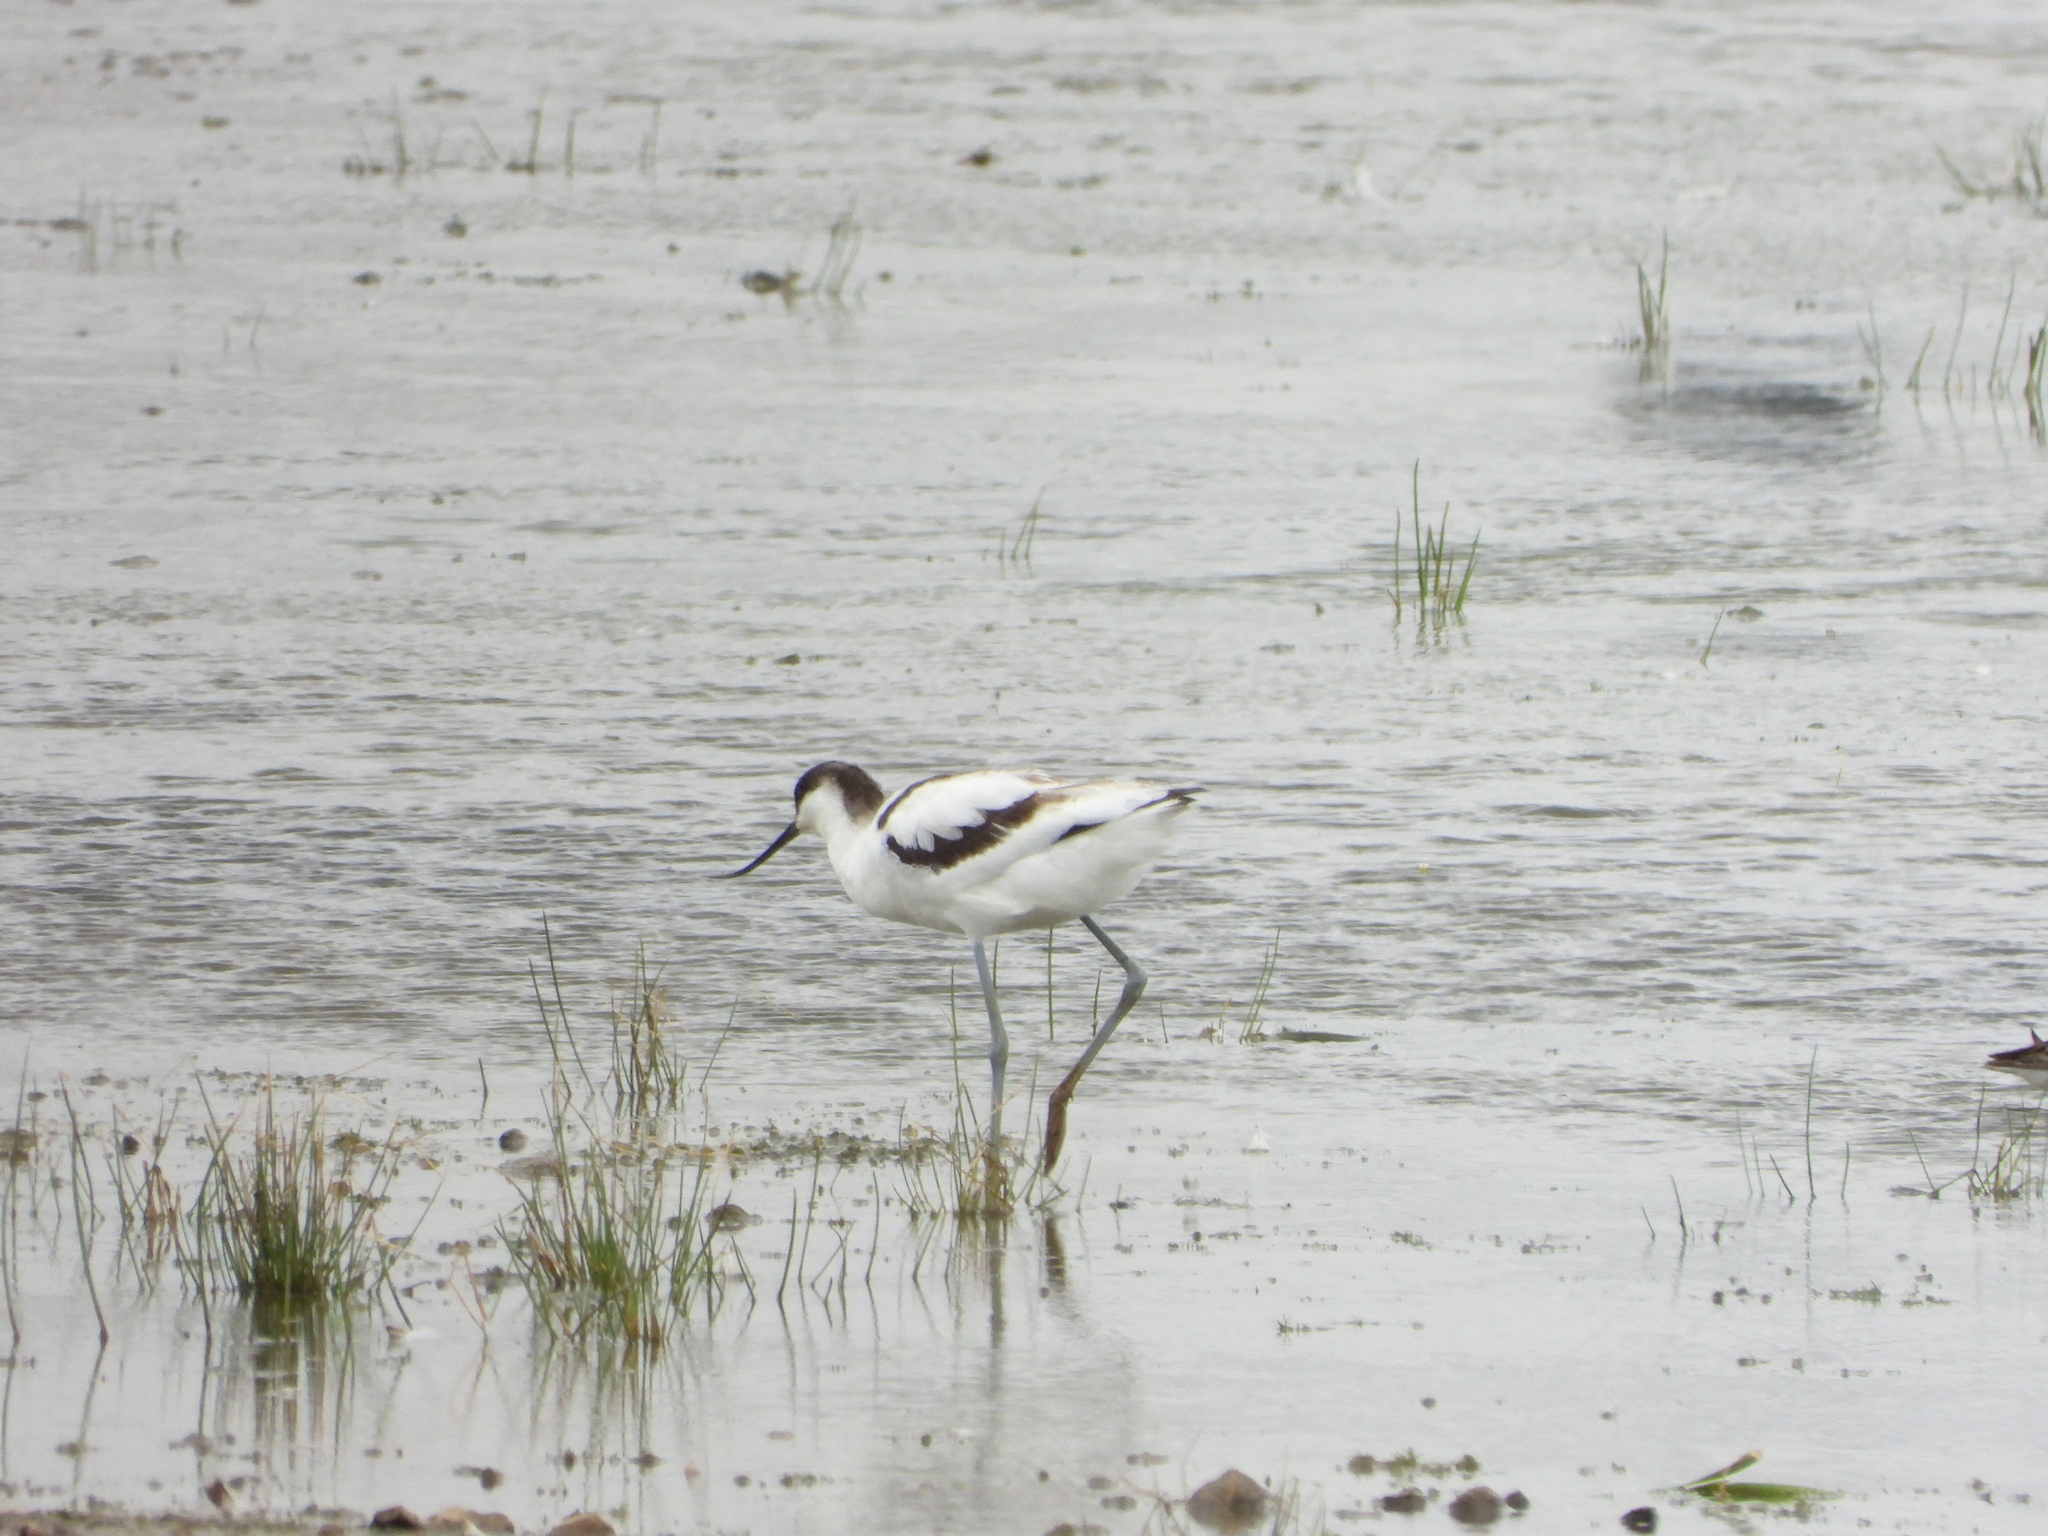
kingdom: Animalia
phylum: Chordata
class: Aves
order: Charadriiformes
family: Recurvirostridae
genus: Recurvirostra
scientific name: Recurvirostra avosetta
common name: Pied avocet
